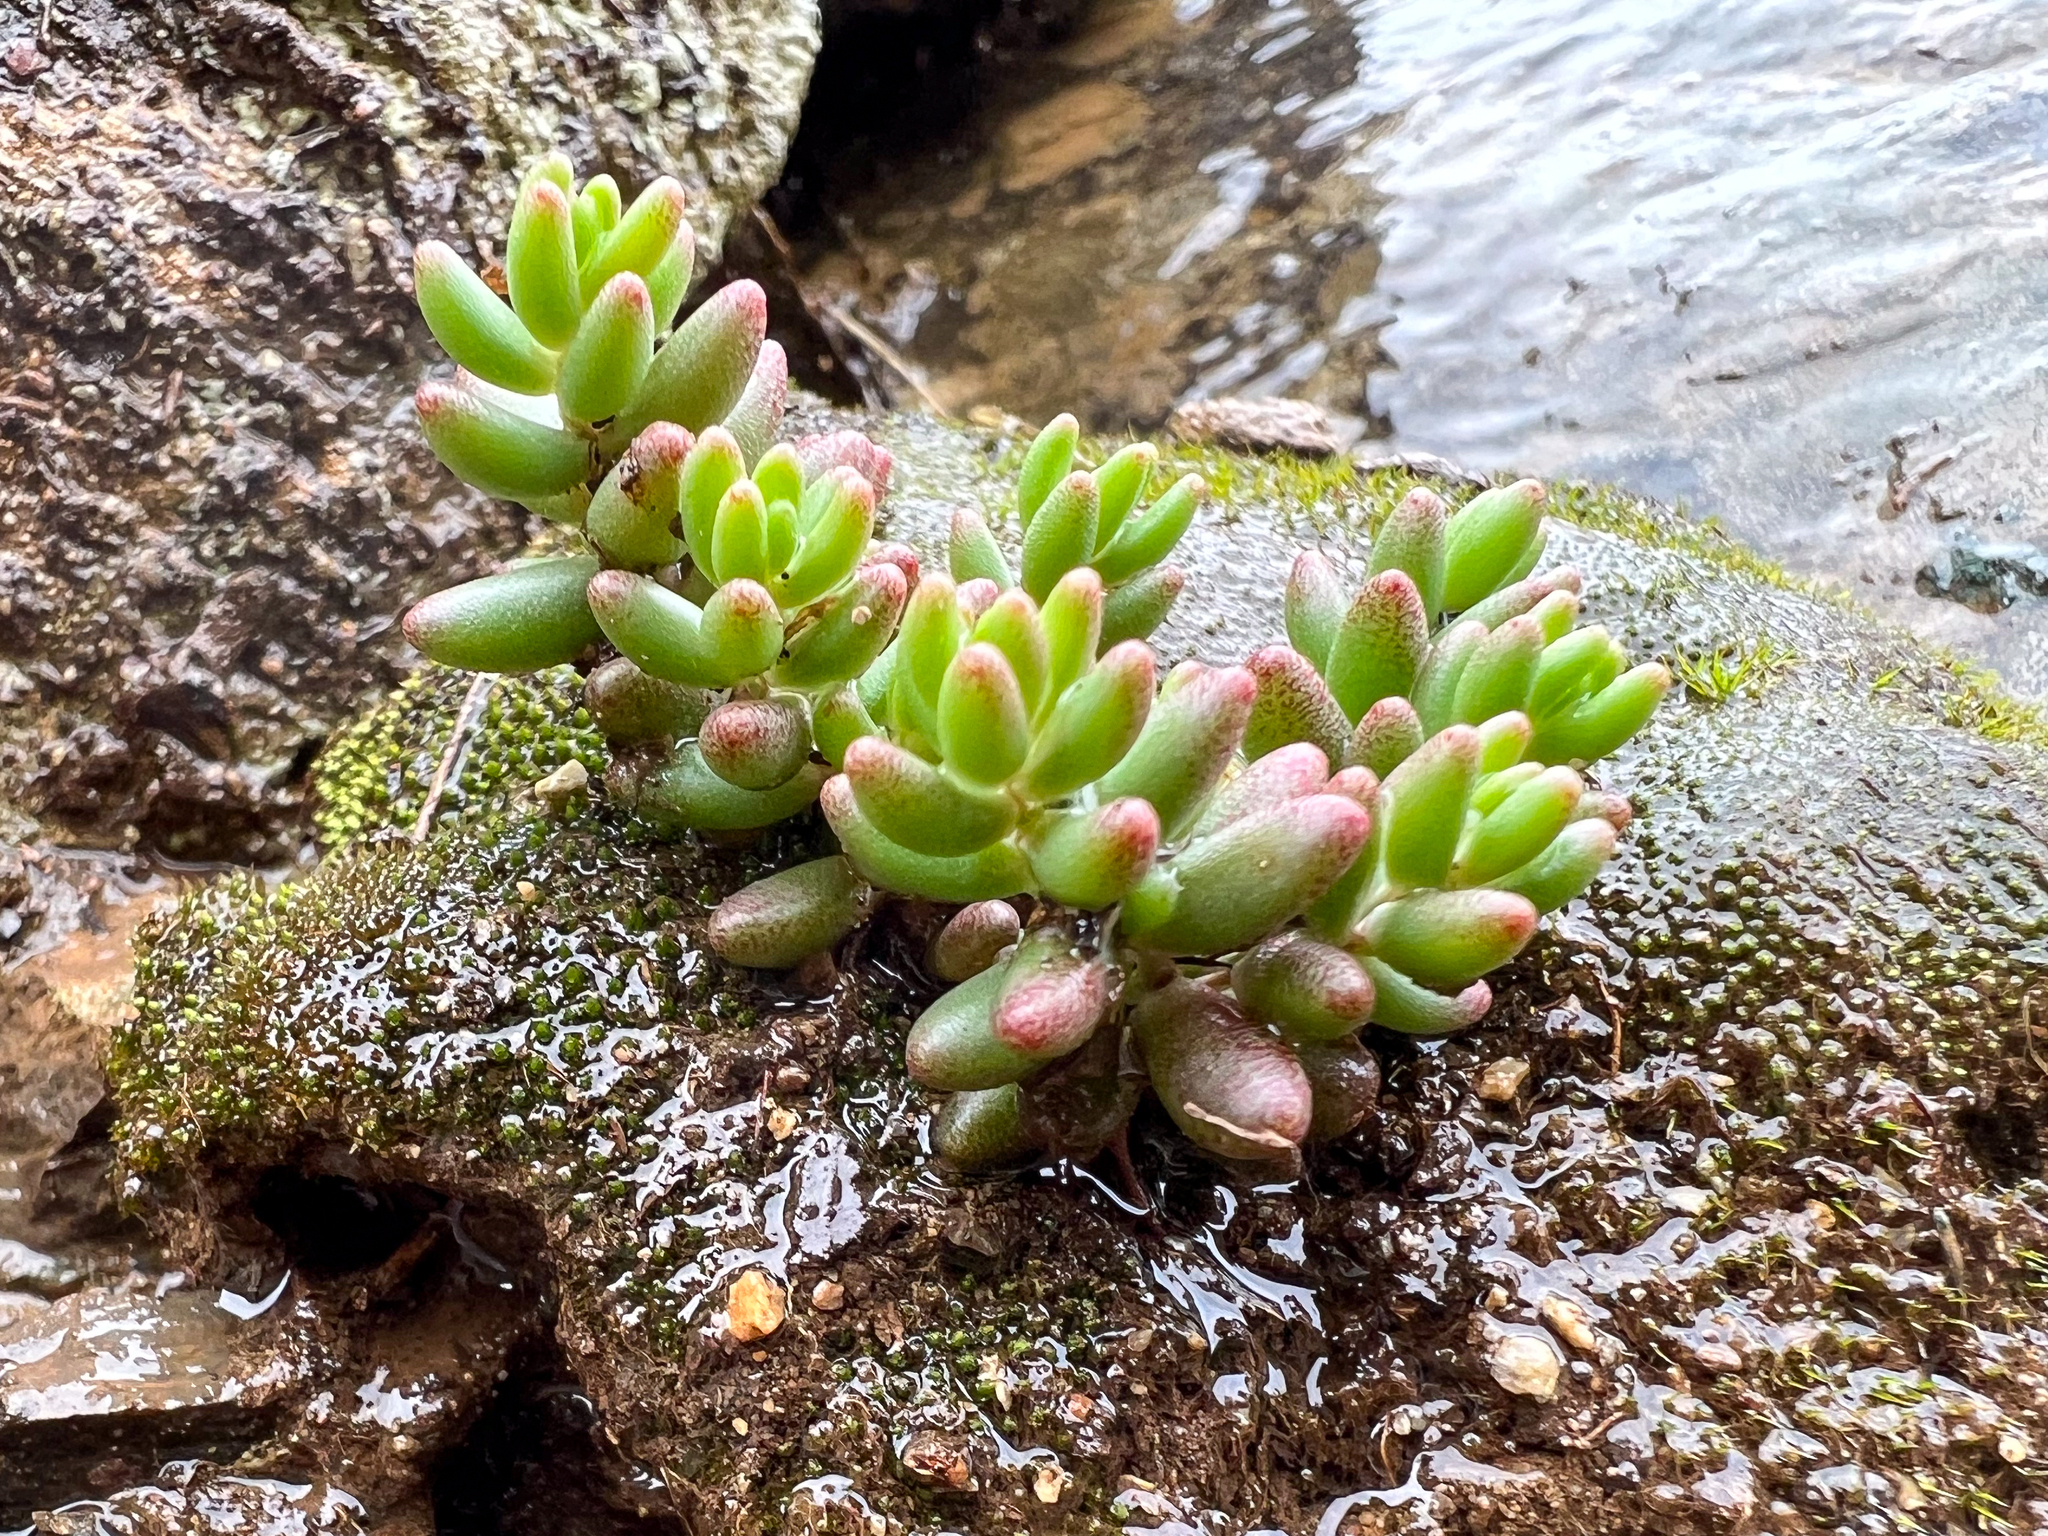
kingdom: Plantae
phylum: Tracheophyta
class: Magnoliopsida
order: Saxifragales
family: Crassulaceae
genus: Sedum
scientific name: Sedum album
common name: White stonecrop
